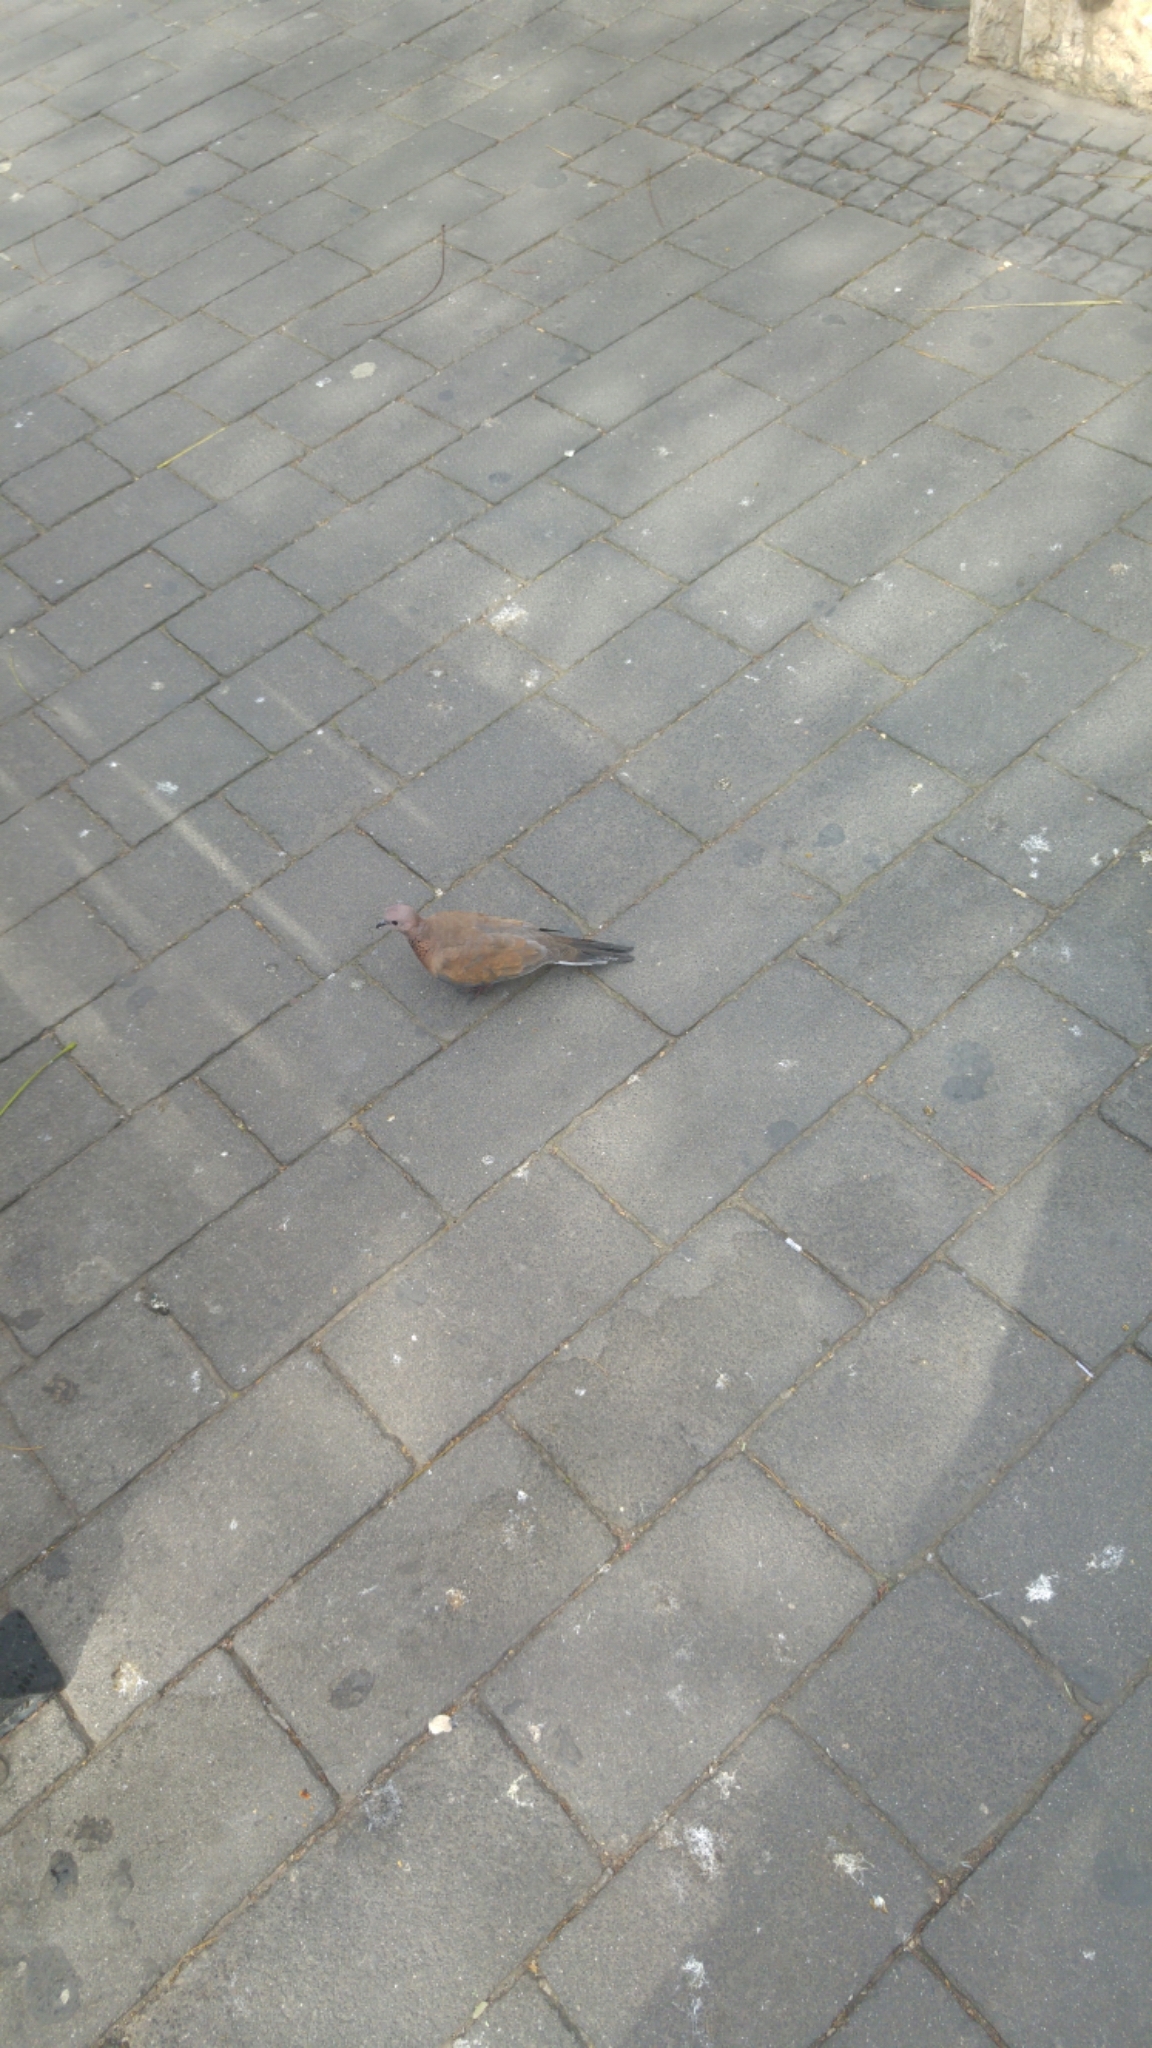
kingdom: Animalia
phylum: Chordata
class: Aves
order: Columbiformes
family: Columbidae
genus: Spilopelia
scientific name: Spilopelia senegalensis
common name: Laughing dove
